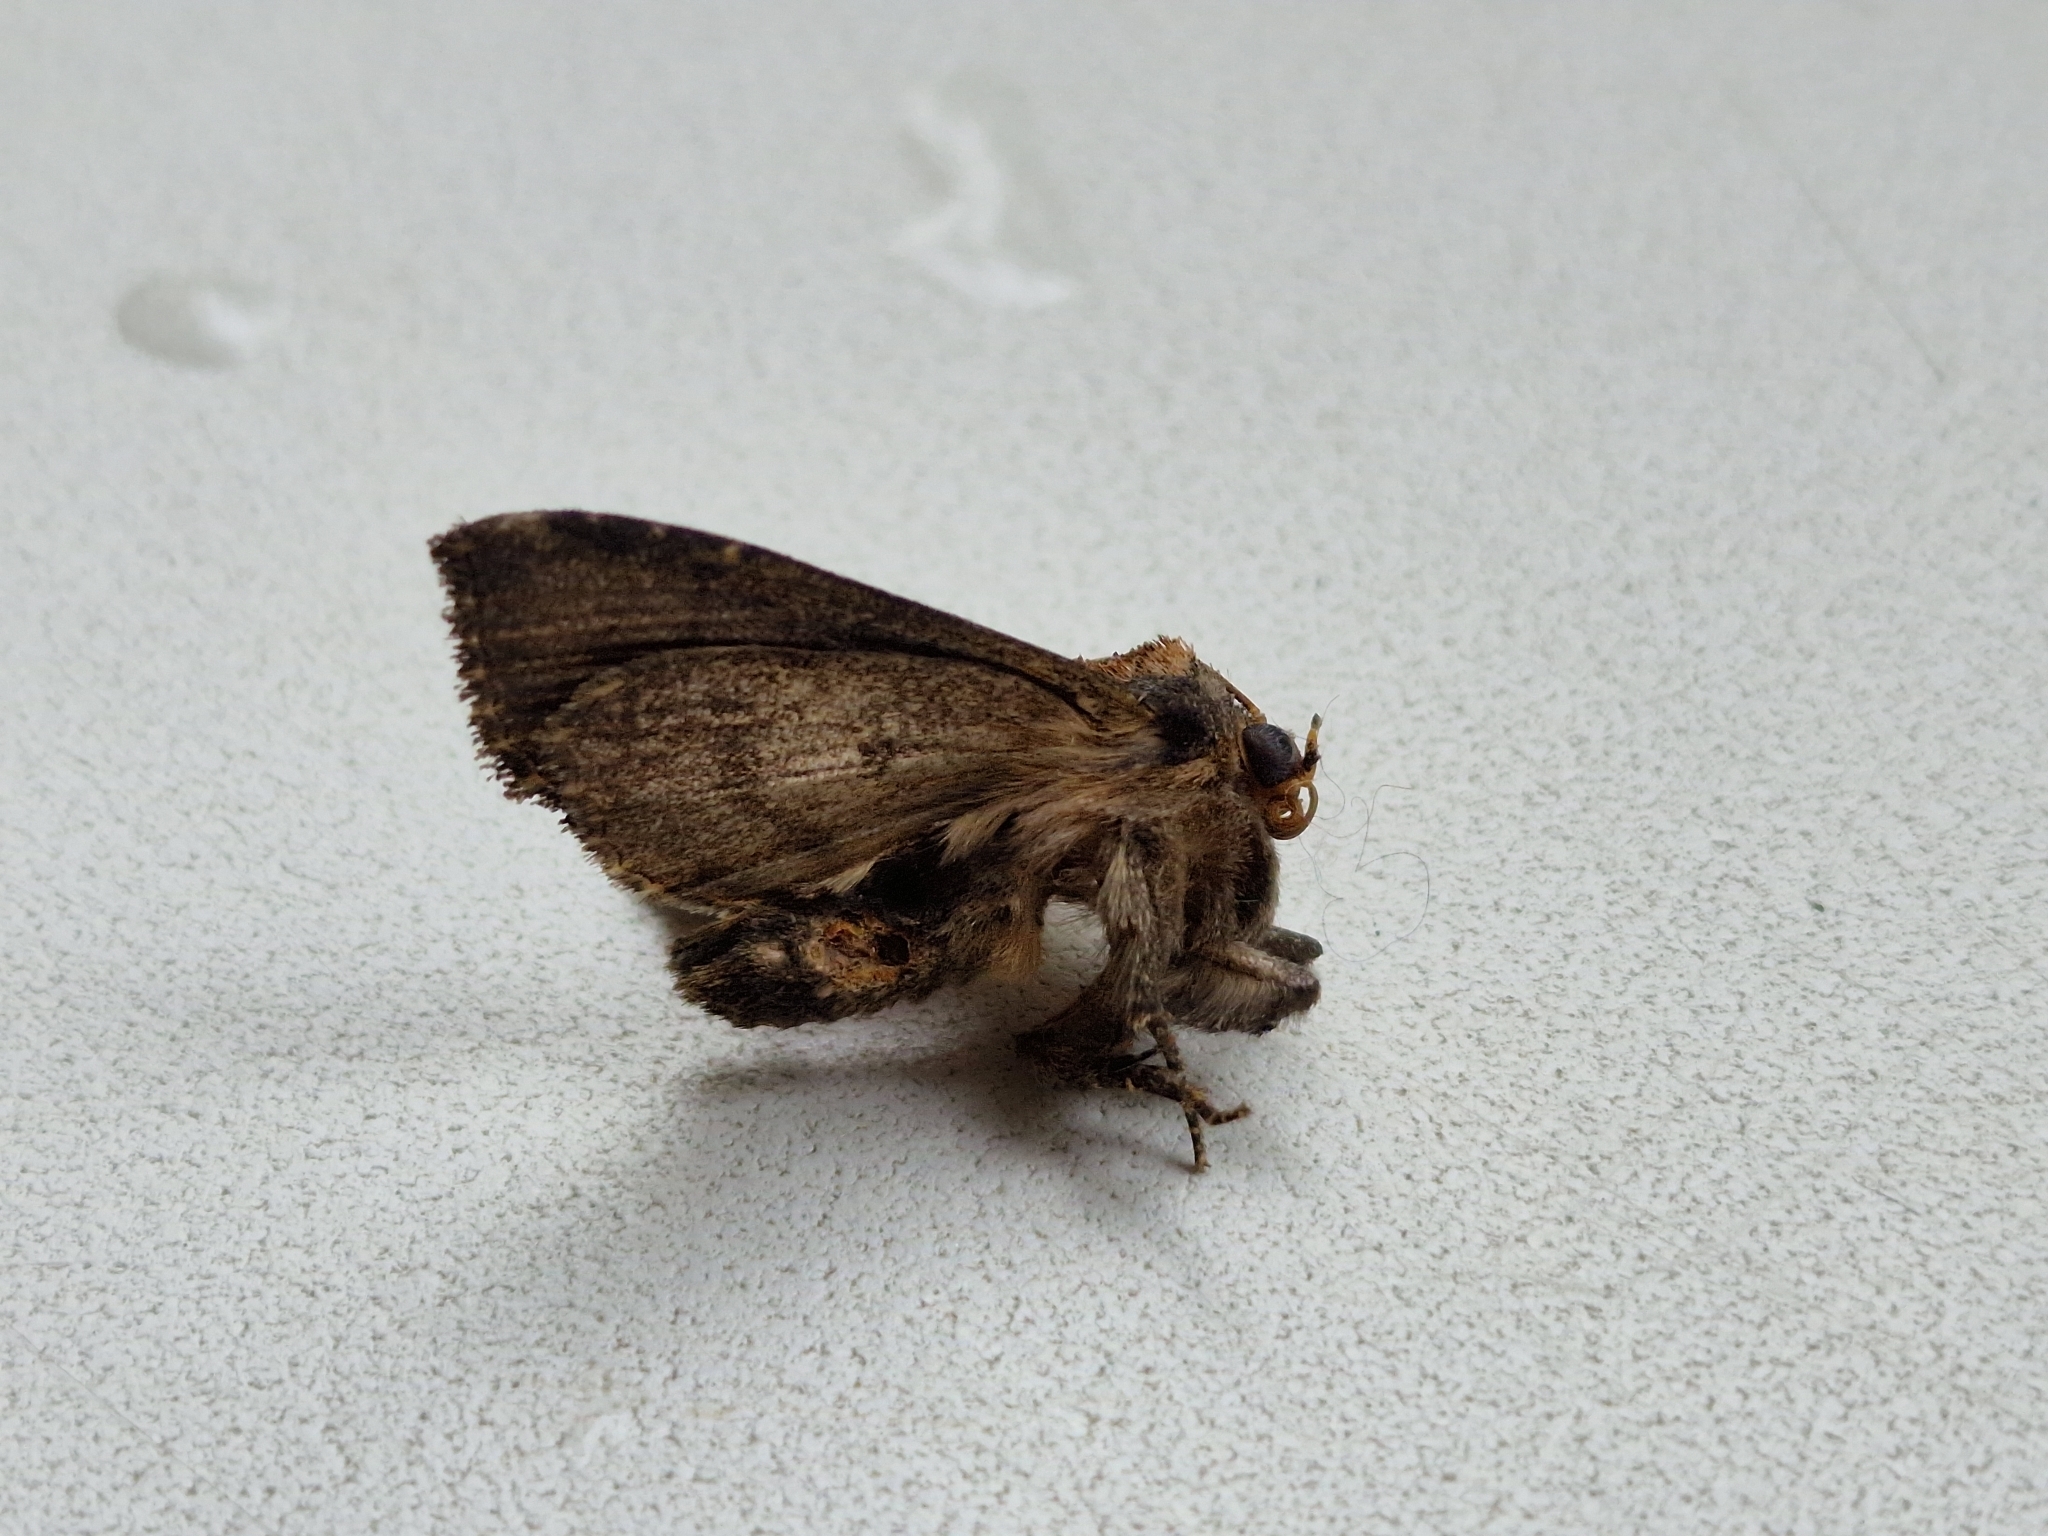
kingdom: Animalia
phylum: Arthropoda
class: Insecta
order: Lepidoptera
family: Noctuidae
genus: Dypterygia
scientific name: Dypterygia scabriuscula
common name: Bird's wing
